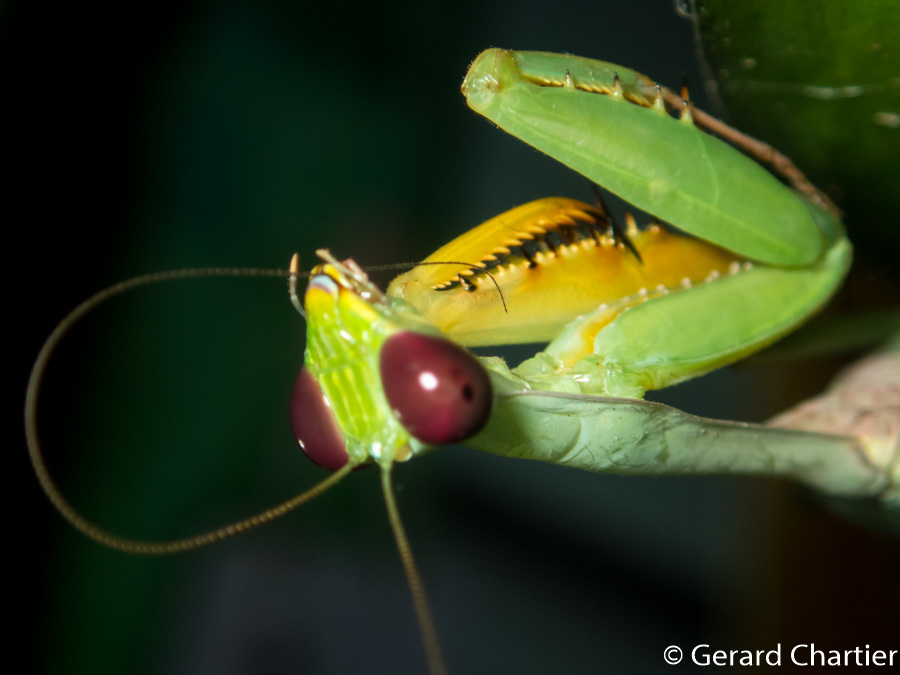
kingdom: Animalia
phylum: Arthropoda
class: Insecta
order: Mantodea
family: Mantidae
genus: Hierodula
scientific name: Hierodula venosa
